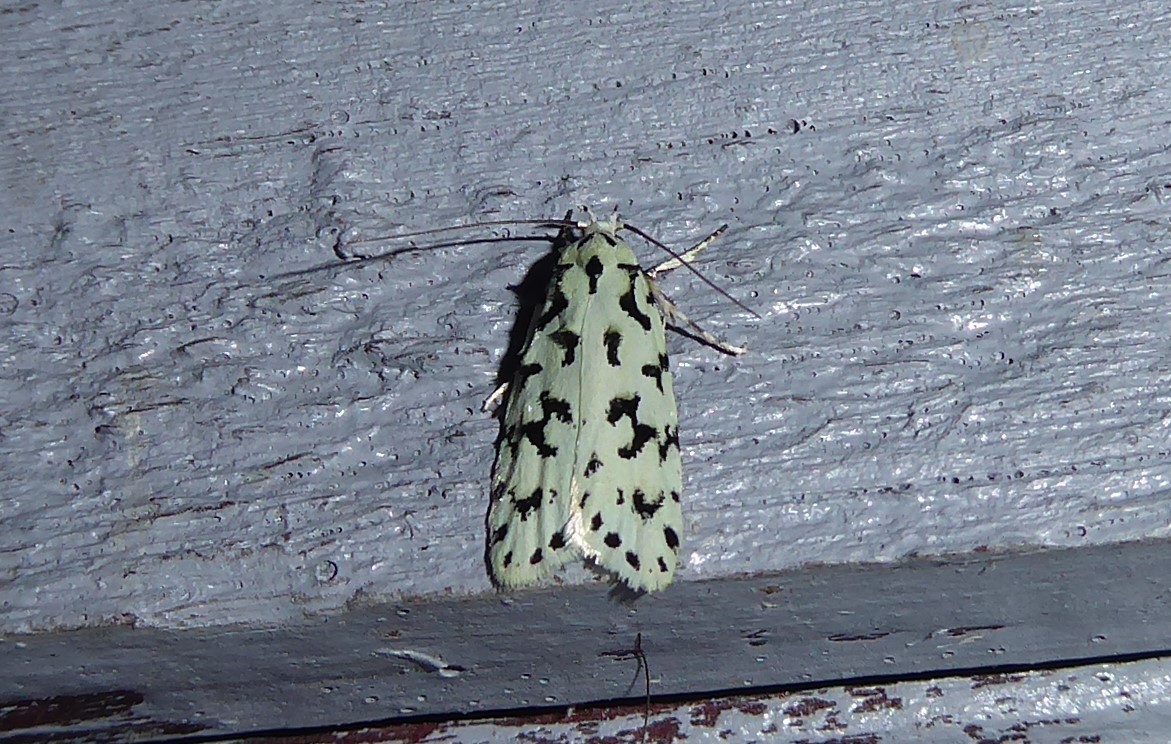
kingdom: Animalia
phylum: Arthropoda
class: Insecta
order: Lepidoptera
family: Oecophoridae
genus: Izatha
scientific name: Izatha huttoni
